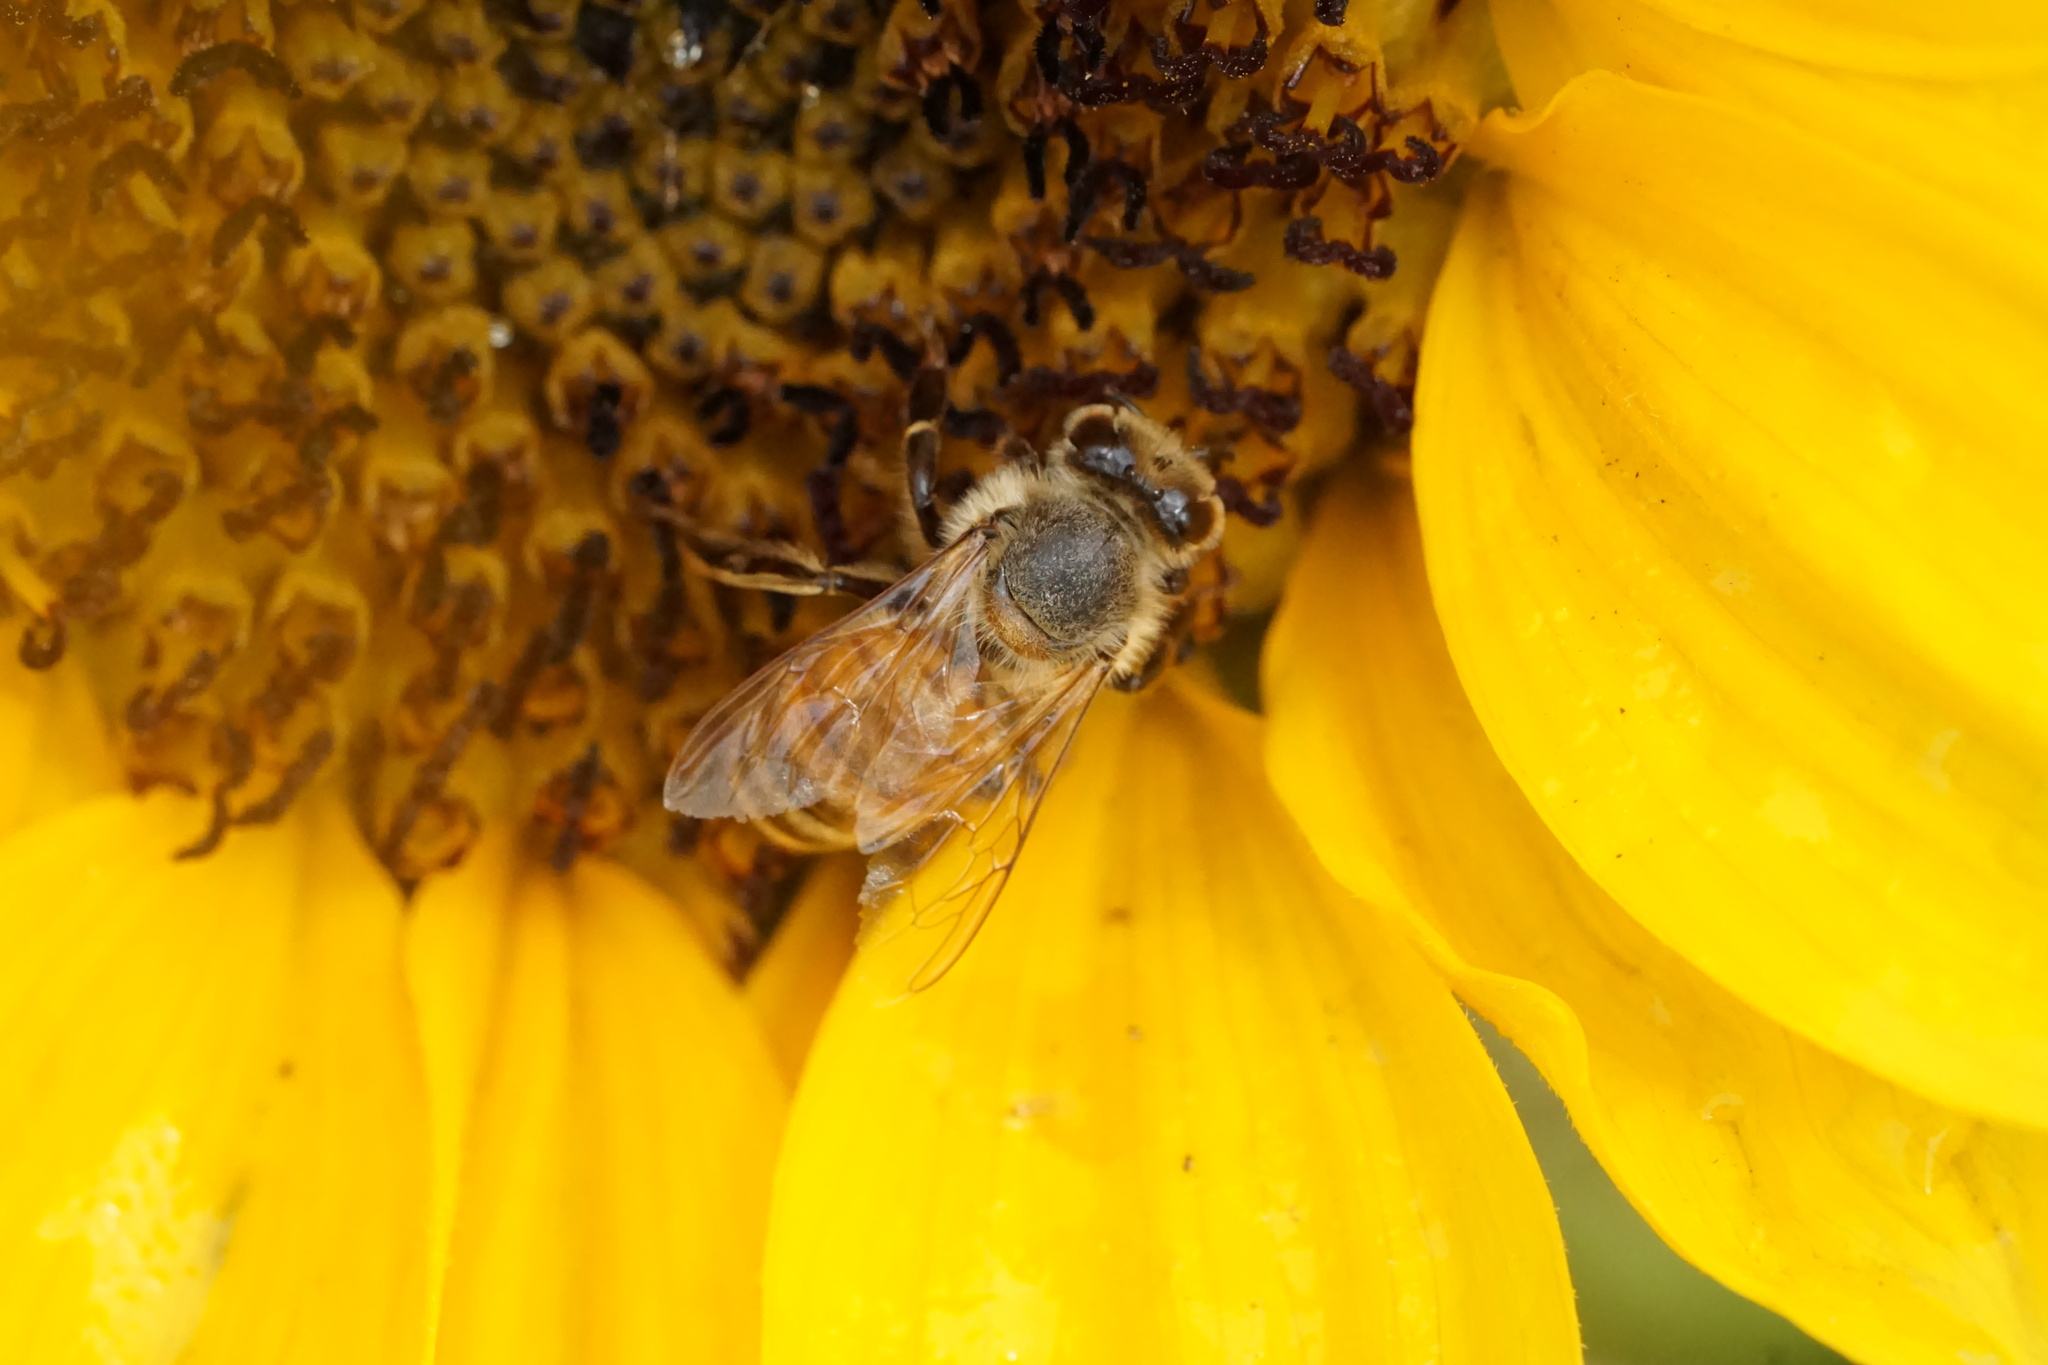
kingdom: Animalia
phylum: Arthropoda
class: Insecta
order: Hymenoptera
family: Apidae
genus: Apis
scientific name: Apis mellifera
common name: Honey bee
